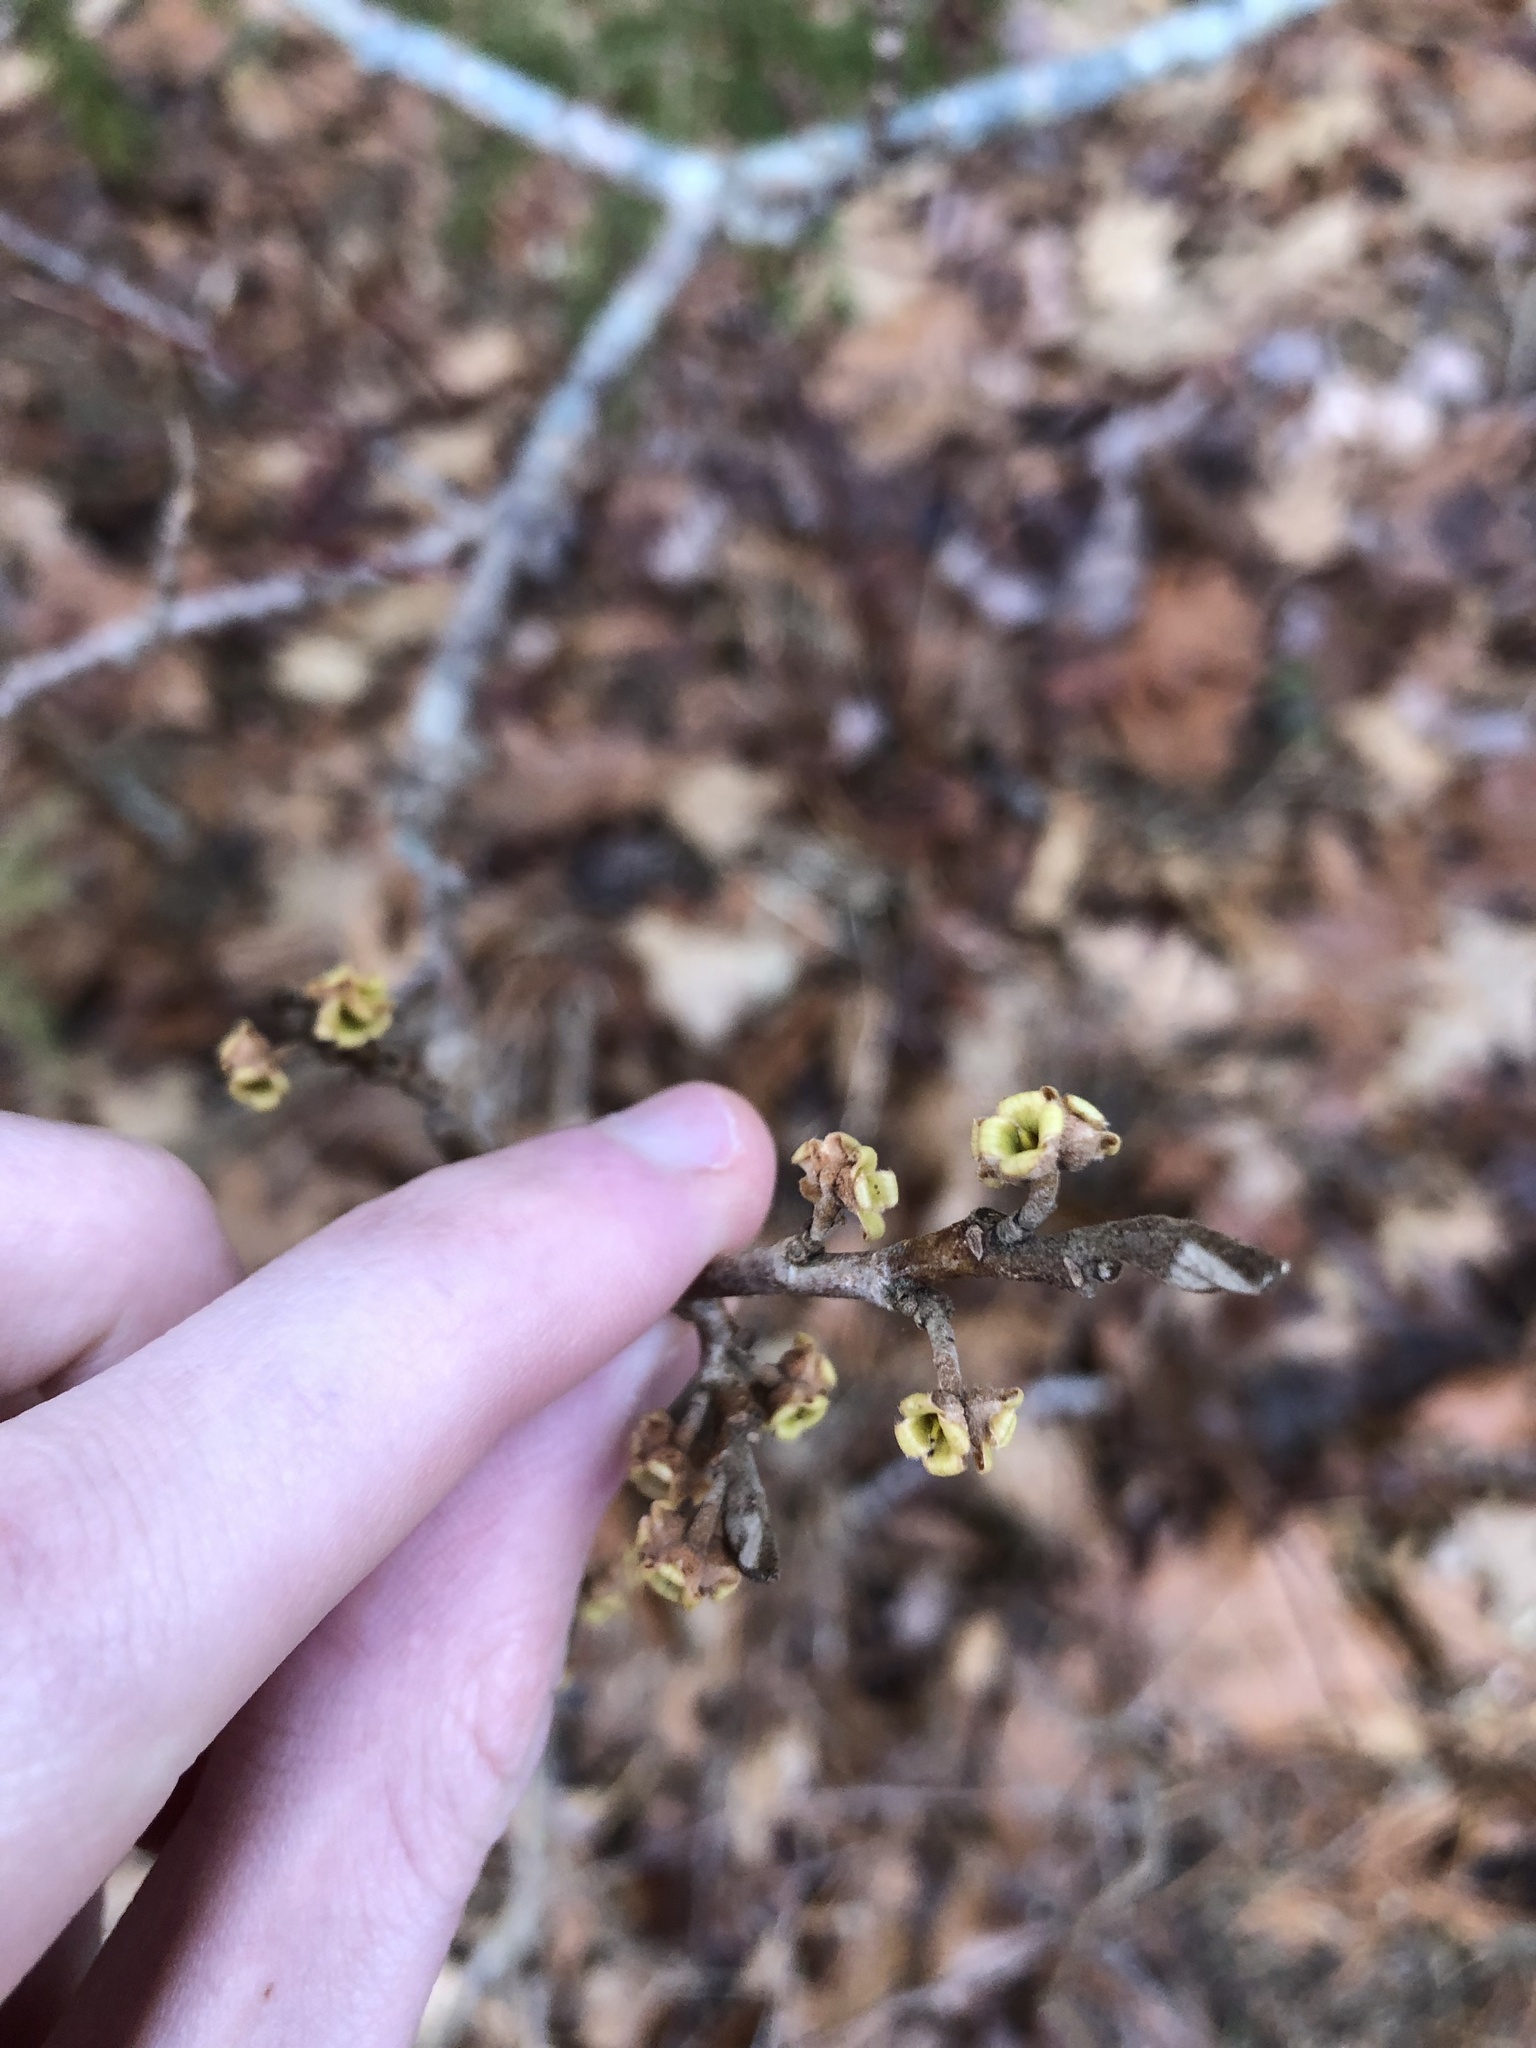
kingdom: Plantae
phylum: Tracheophyta
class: Magnoliopsida
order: Saxifragales
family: Hamamelidaceae
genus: Hamamelis
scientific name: Hamamelis virginiana
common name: Witch-hazel
